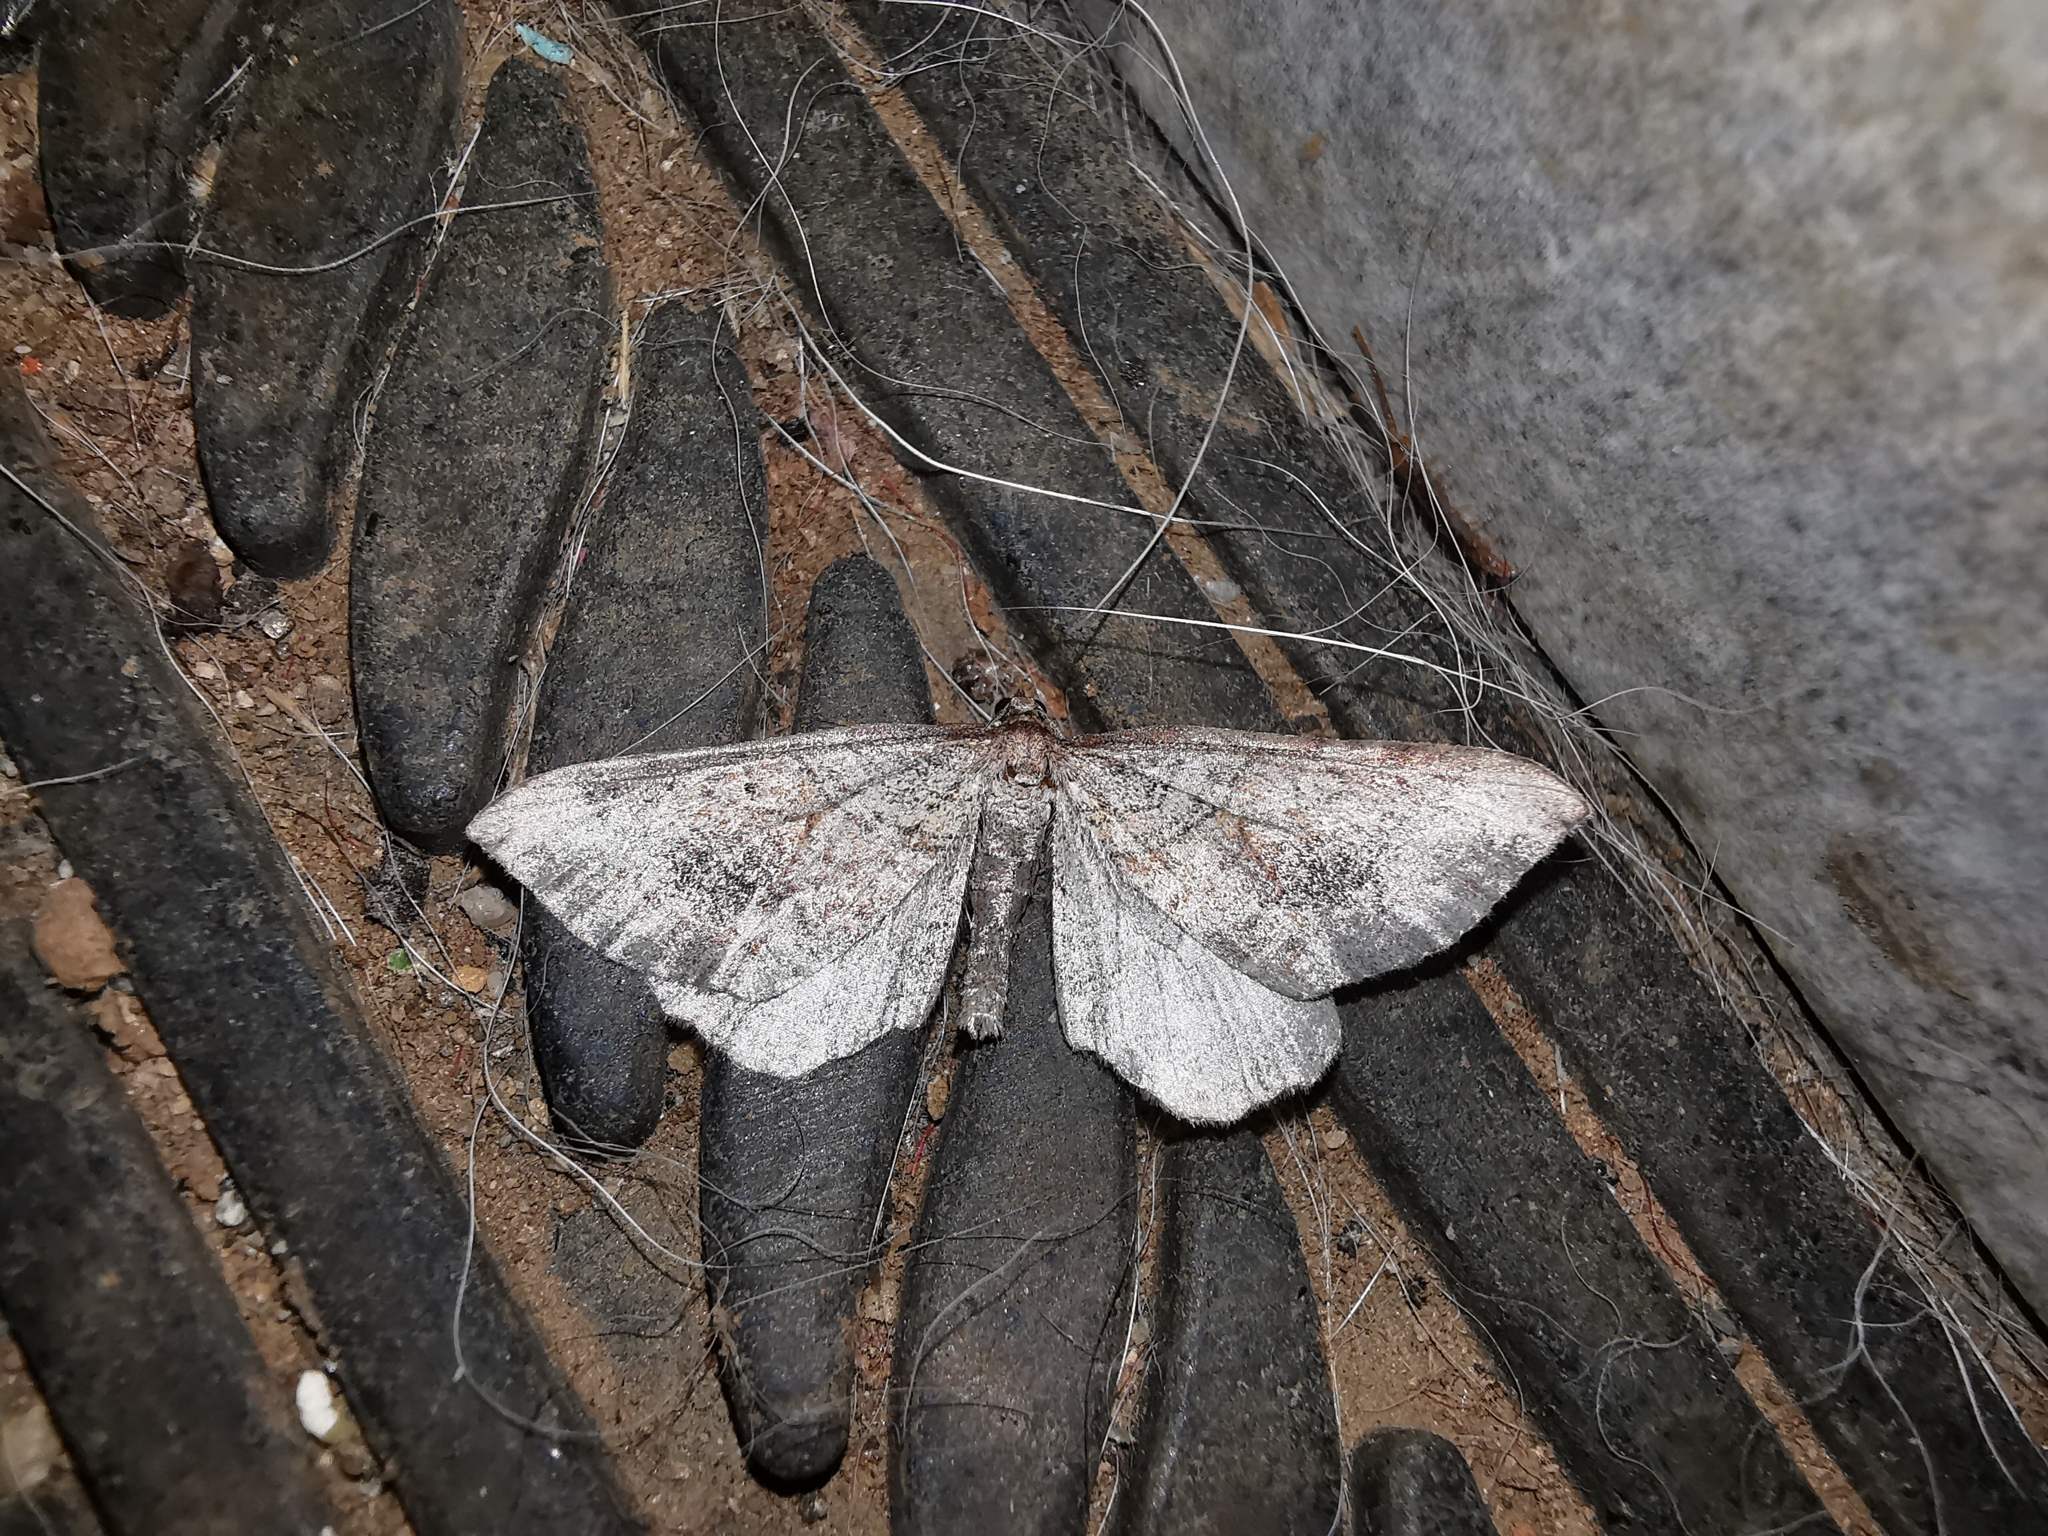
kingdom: Animalia
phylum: Arthropoda
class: Insecta
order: Lepidoptera
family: Geometridae
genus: Coenocalpe
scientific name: Coenocalpe millierata
